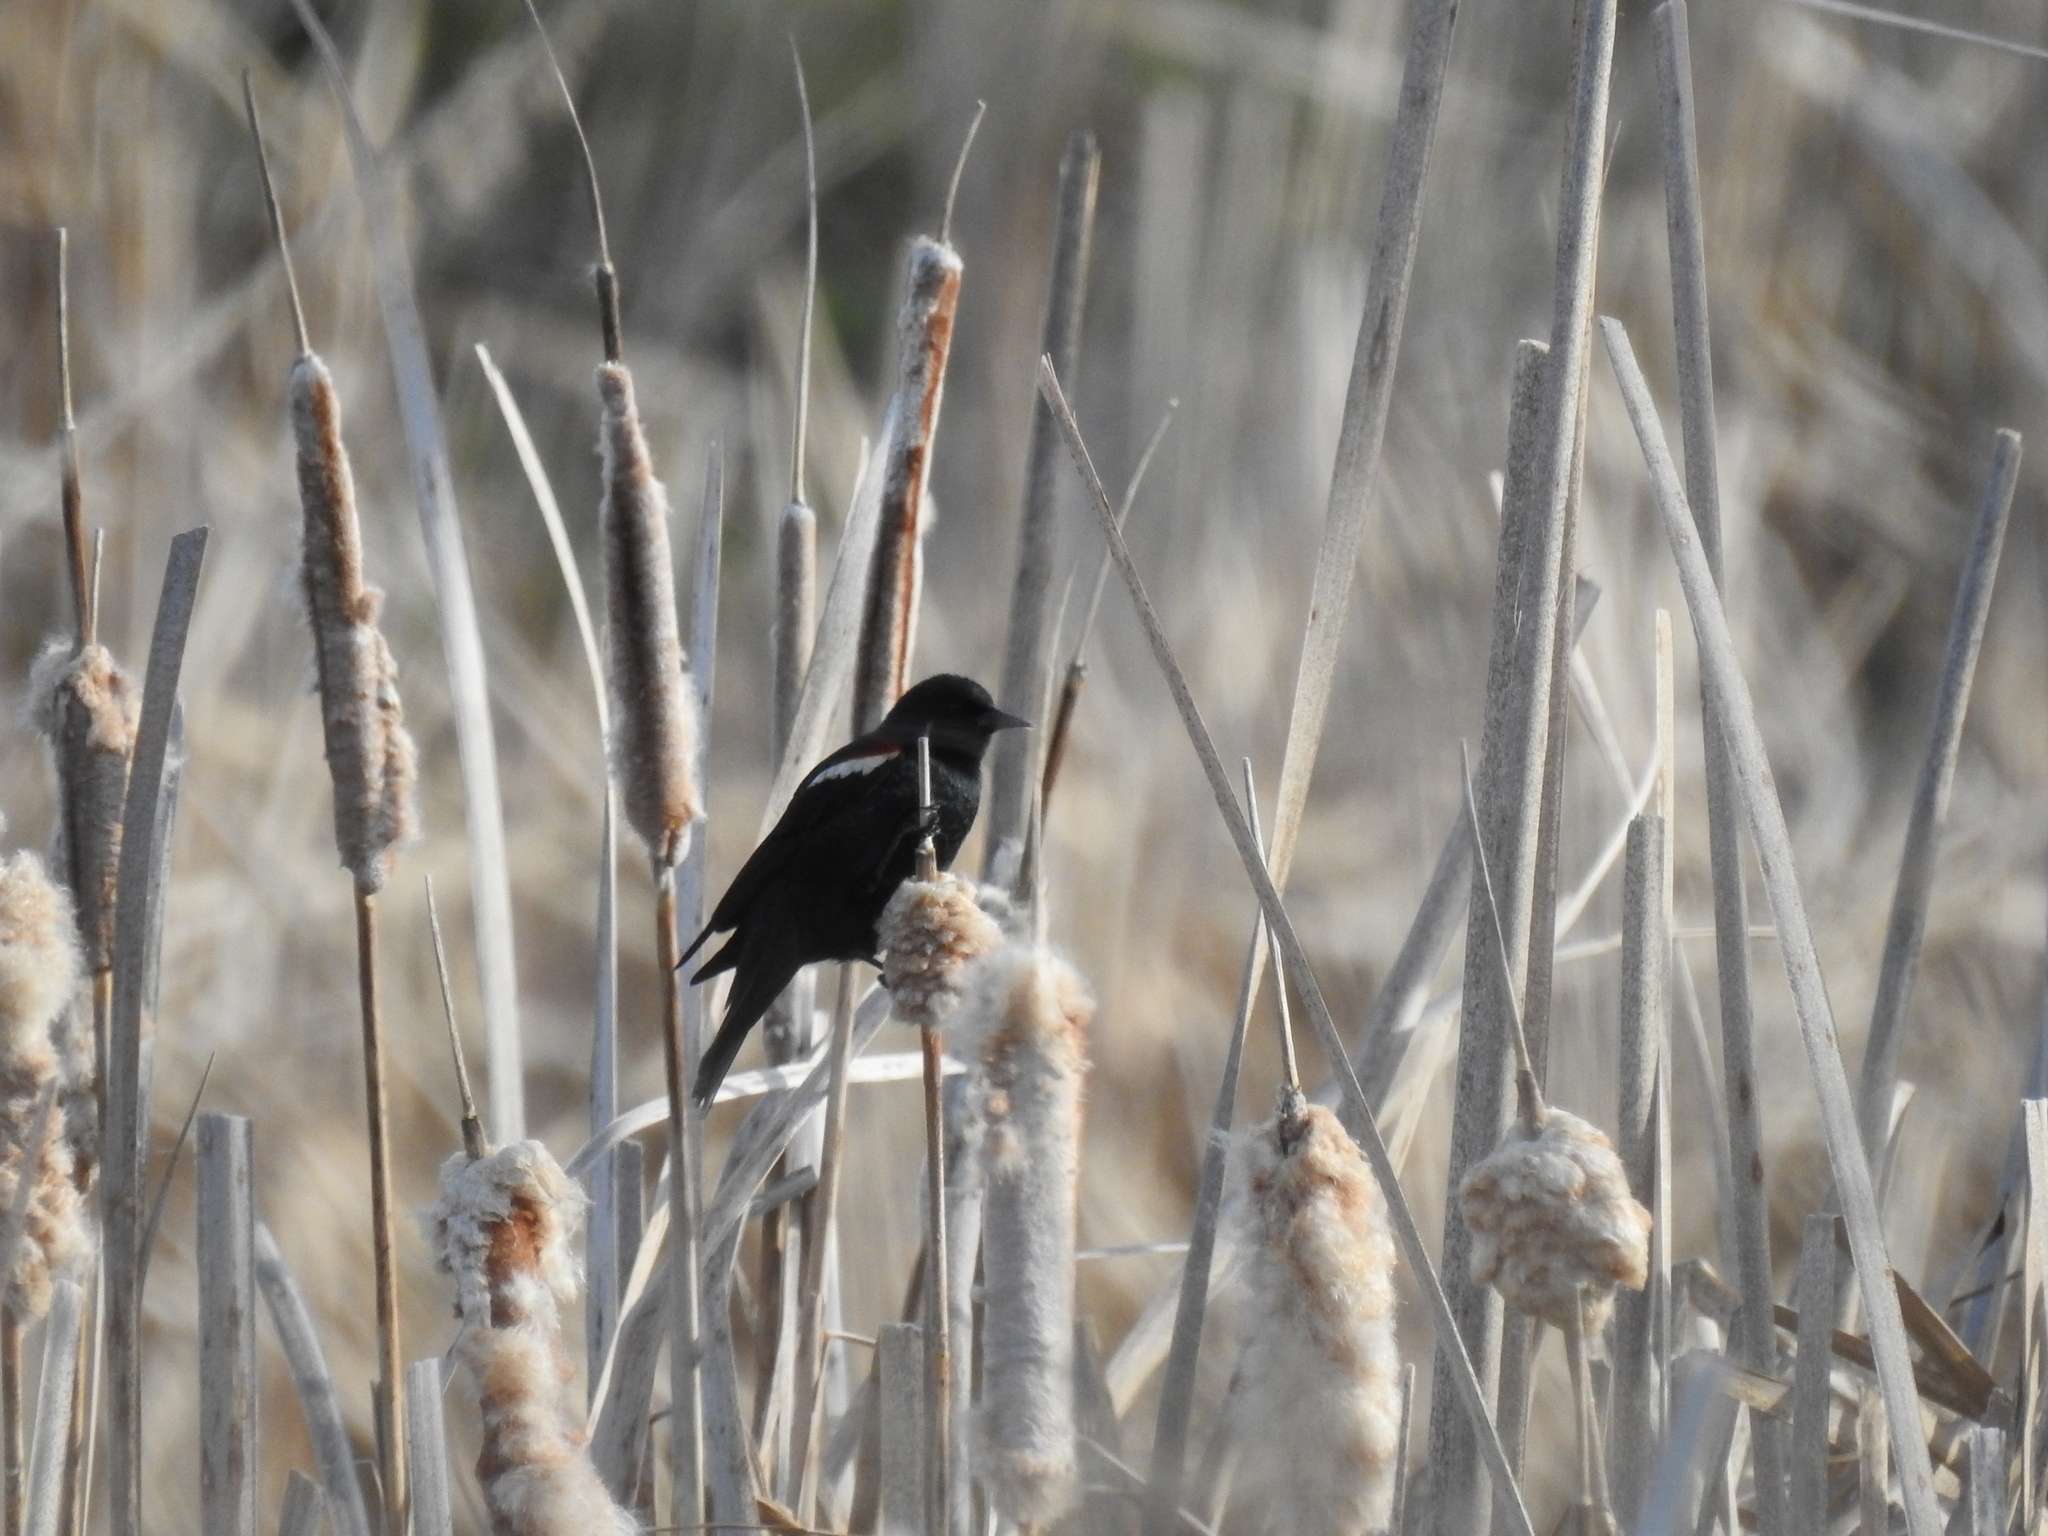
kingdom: Animalia
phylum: Chordata
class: Aves
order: Passeriformes
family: Icteridae
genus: Agelaius
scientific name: Agelaius tricolor
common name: Tricolored blackbird
